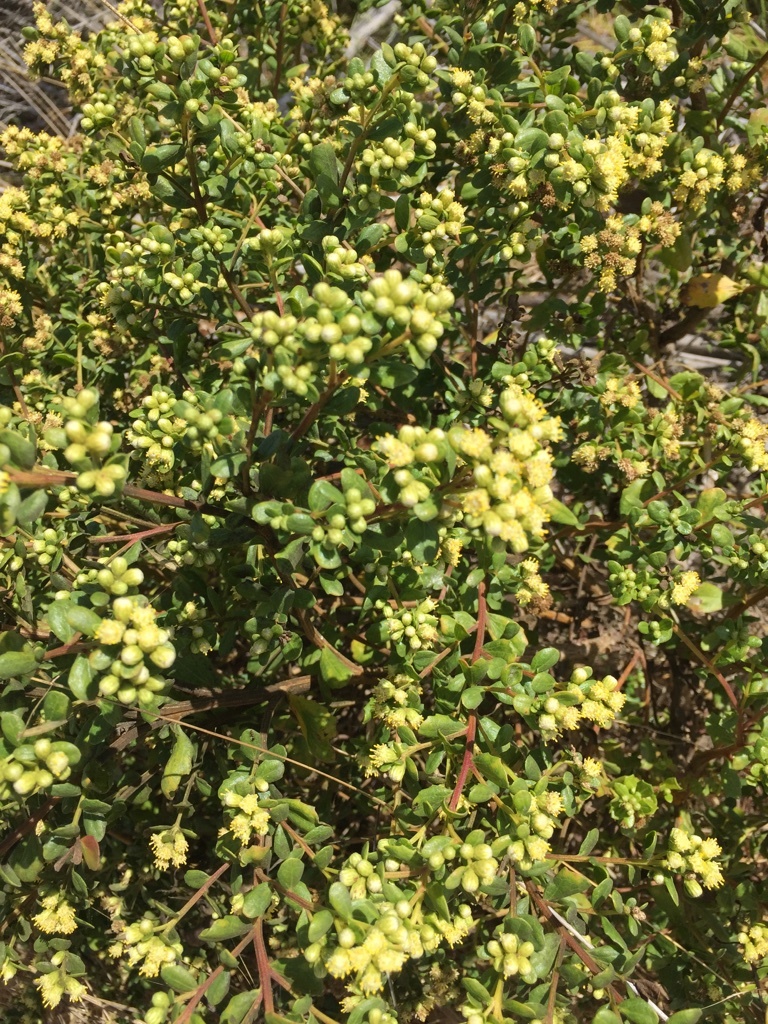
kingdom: Plantae
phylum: Tracheophyta
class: Magnoliopsida
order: Asterales
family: Asteraceae
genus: Baccharis
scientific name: Baccharis pilularis
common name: Coyotebrush
